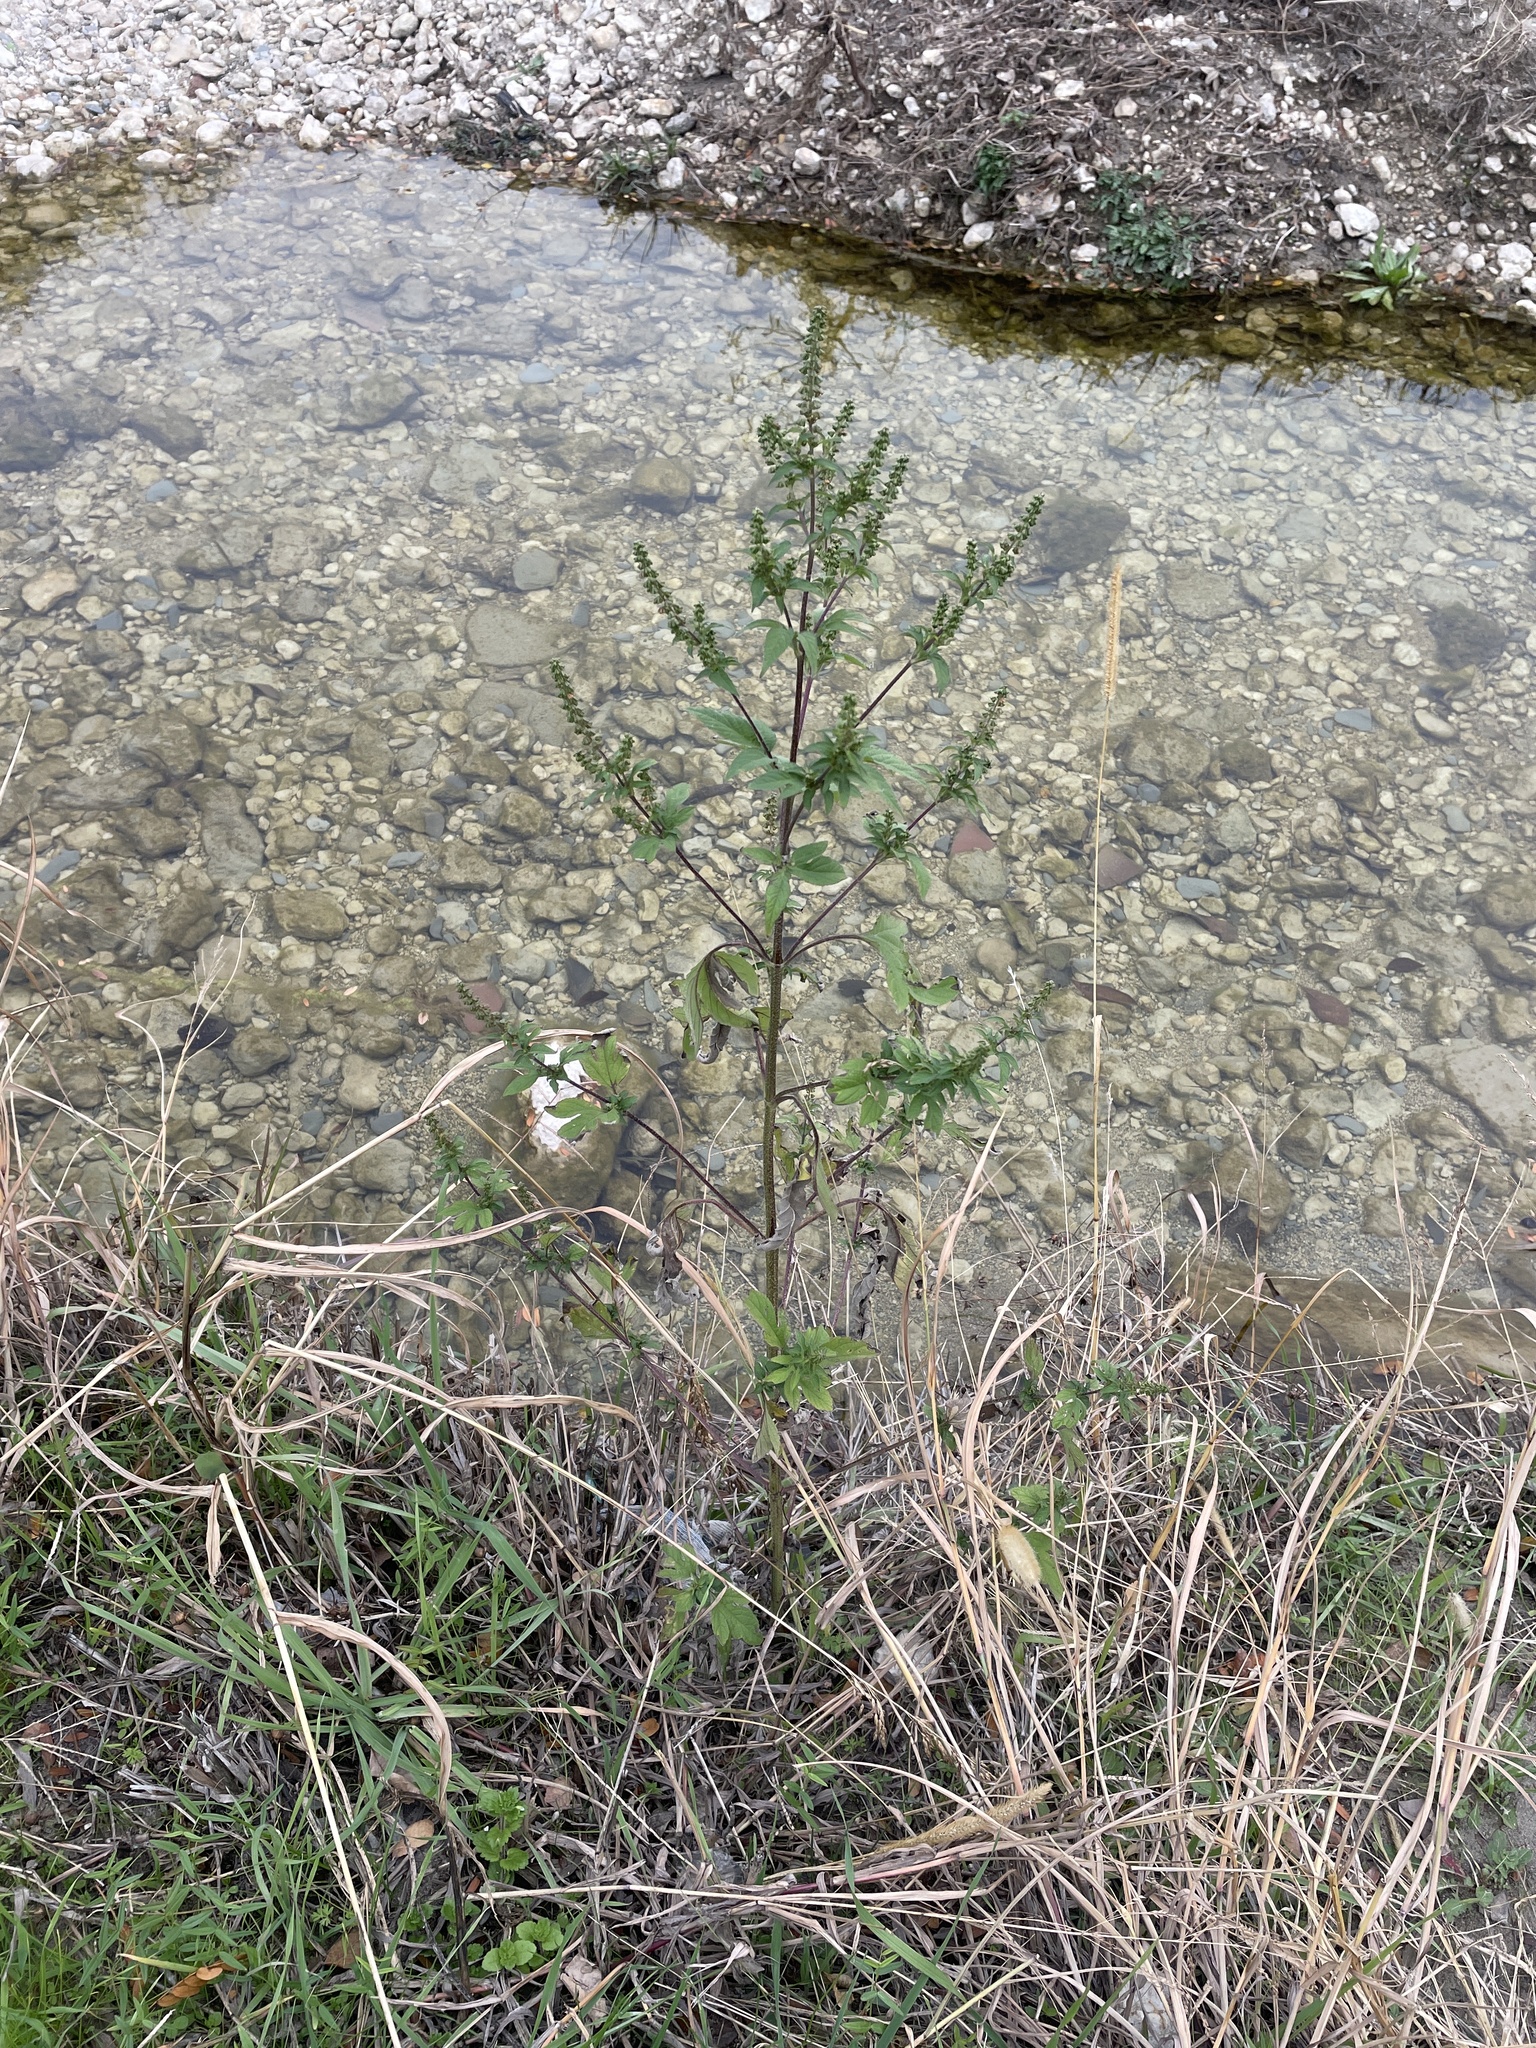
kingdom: Plantae
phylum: Tracheophyta
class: Magnoliopsida
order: Asterales
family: Asteraceae
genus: Ambrosia
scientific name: Ambrosia trifida
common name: Giant ragweed
